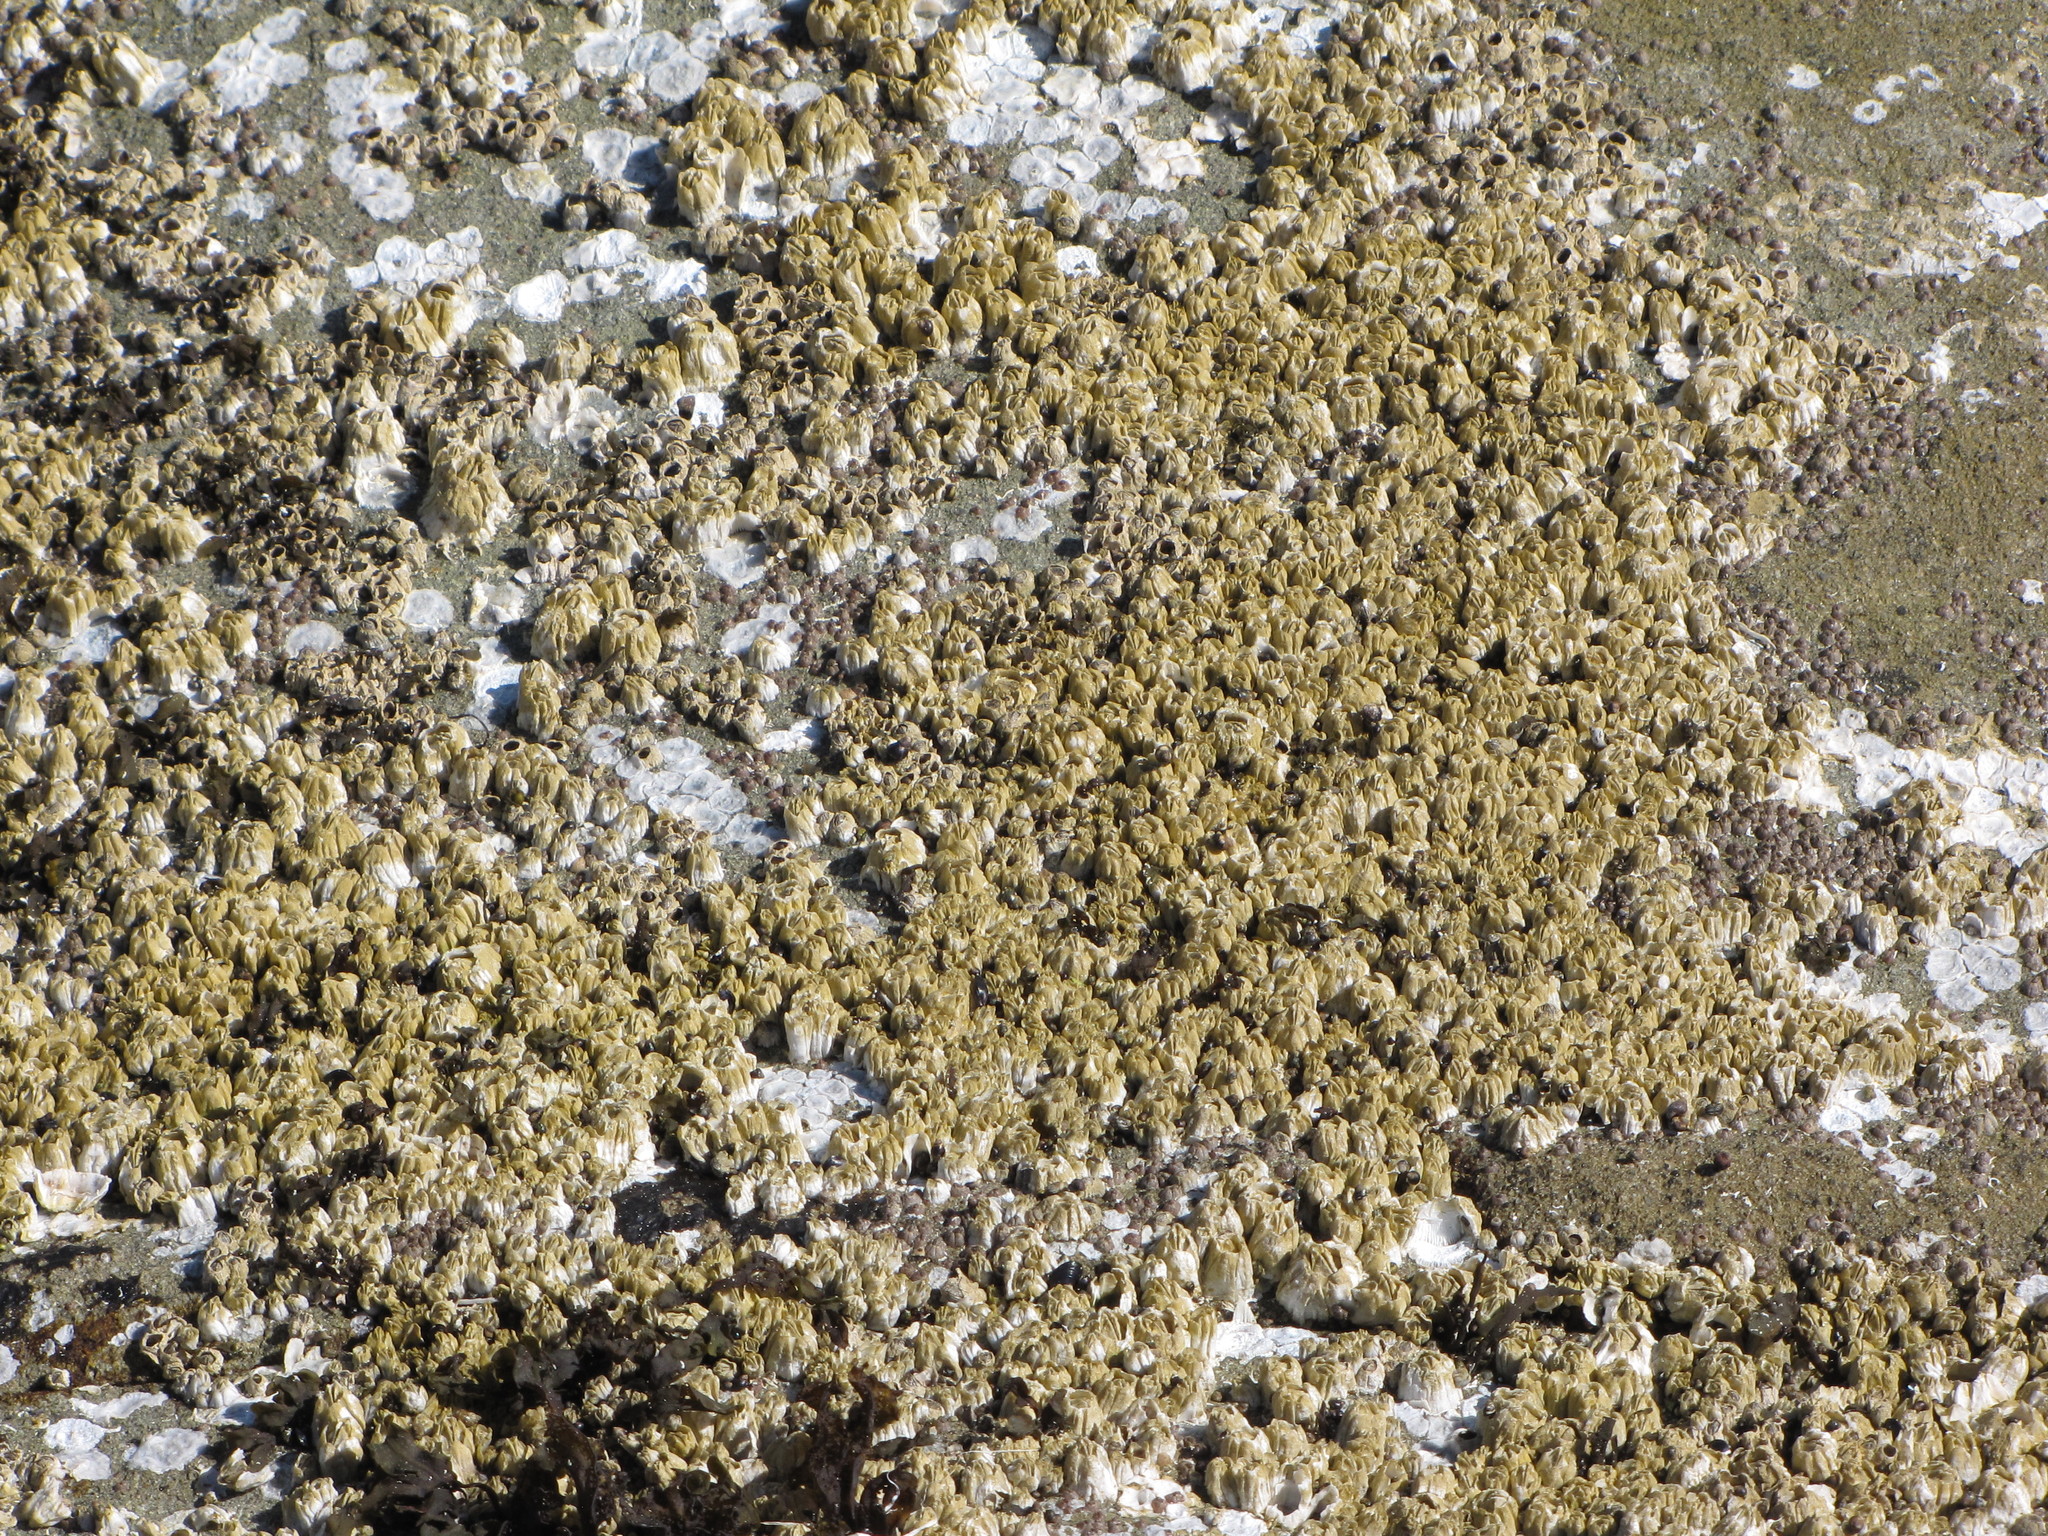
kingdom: Animalia
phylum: Arthropoda
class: Maxillopoda
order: Sessilia
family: Balanidae
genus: Balanus
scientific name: Balanus glandula
